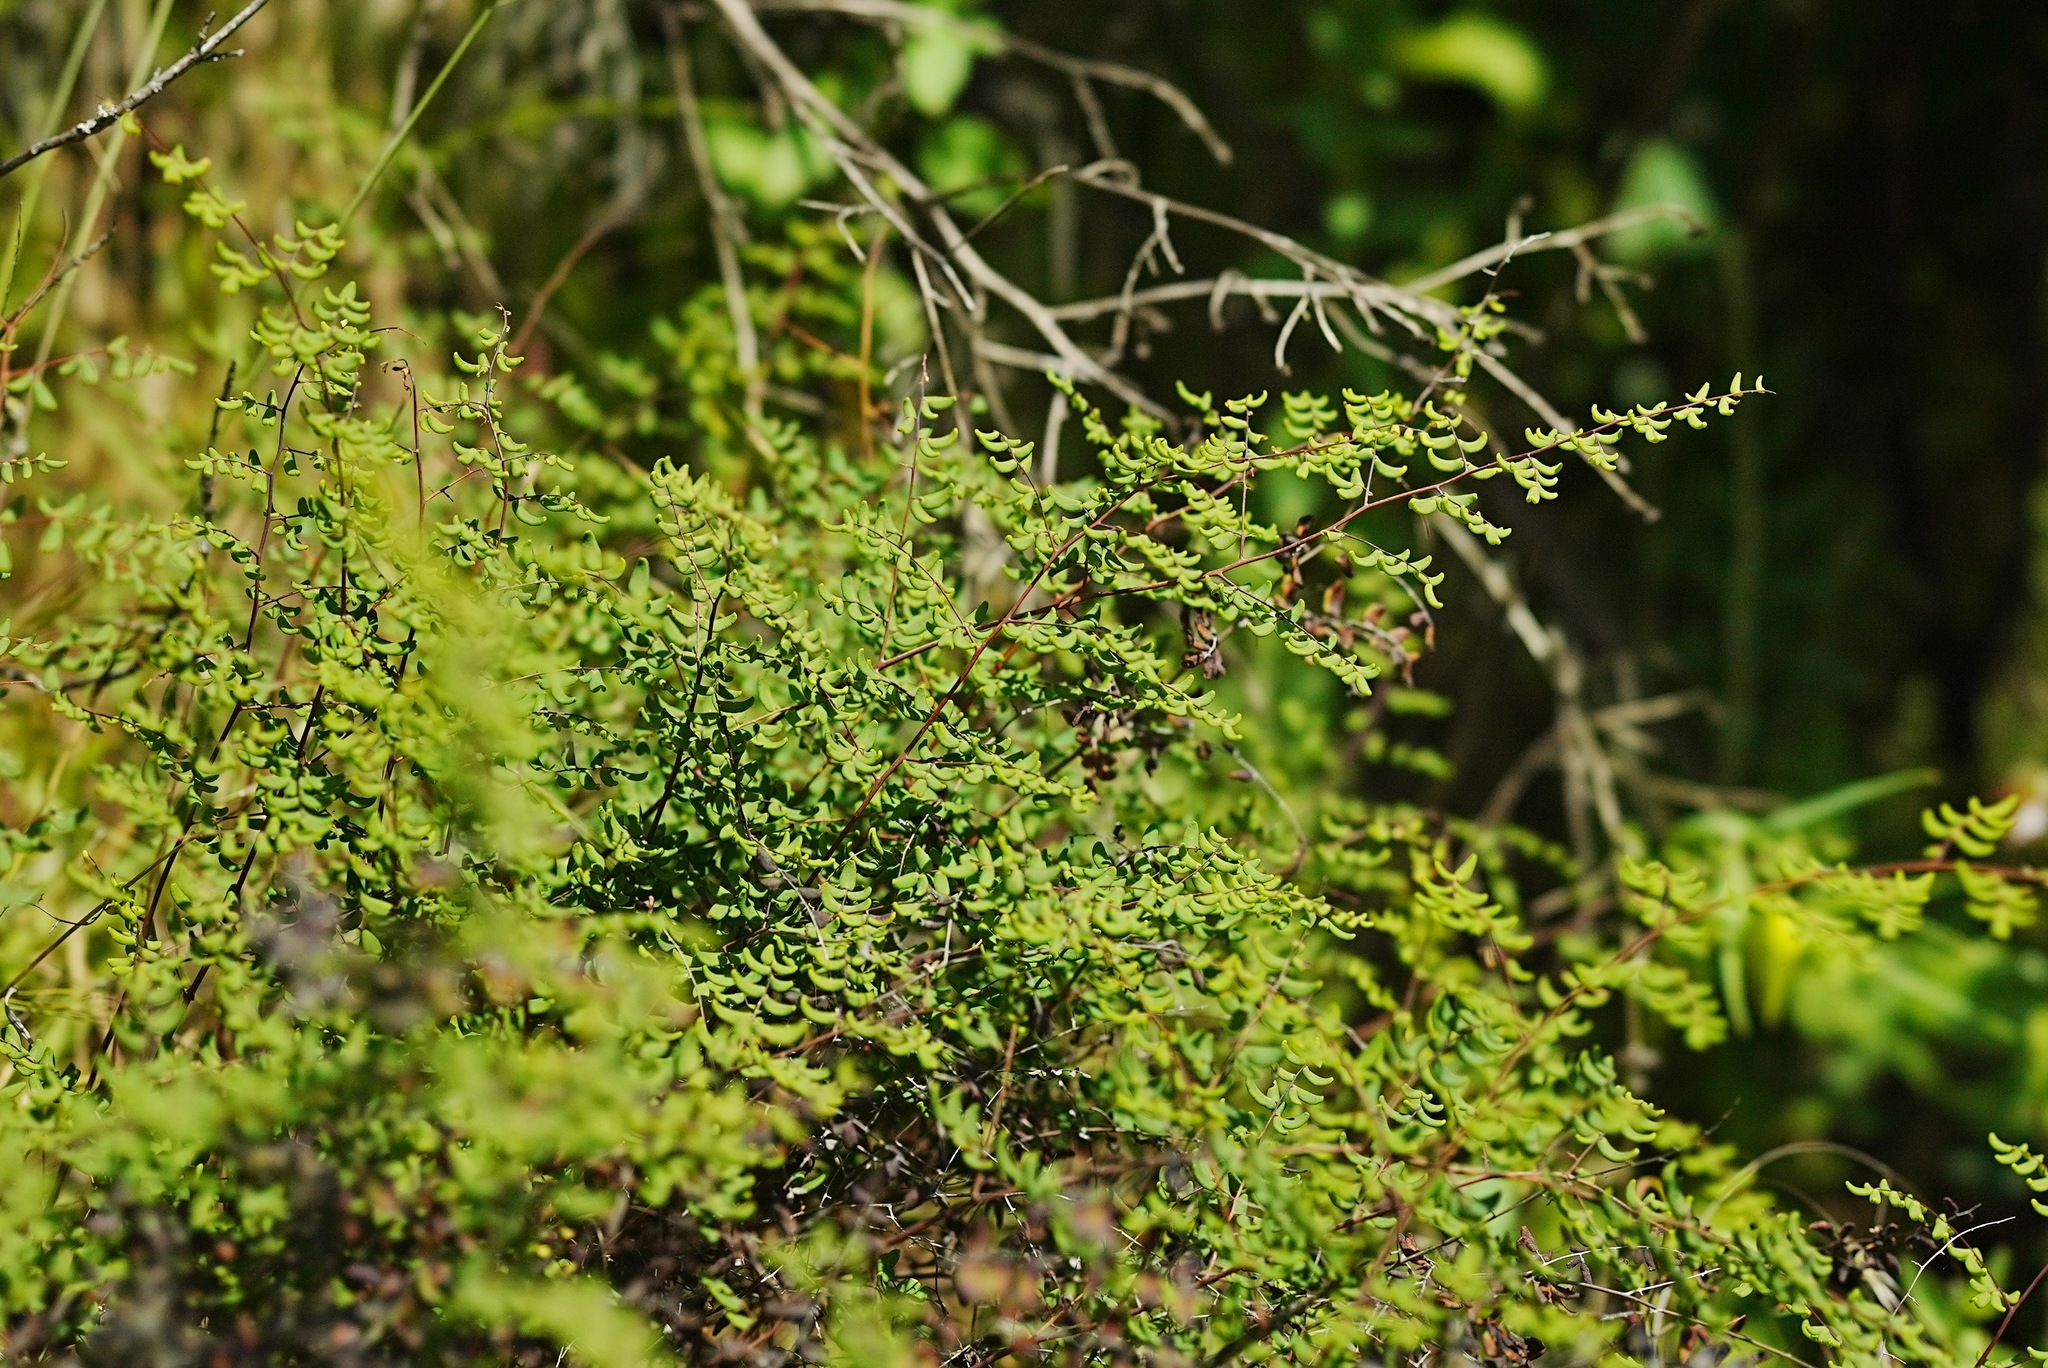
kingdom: Plantae
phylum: Tracheophyta
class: Polypodiopsida
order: Polypodiales
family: Pteridaceae
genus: Pellaea
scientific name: Pellaea andromedifolia
